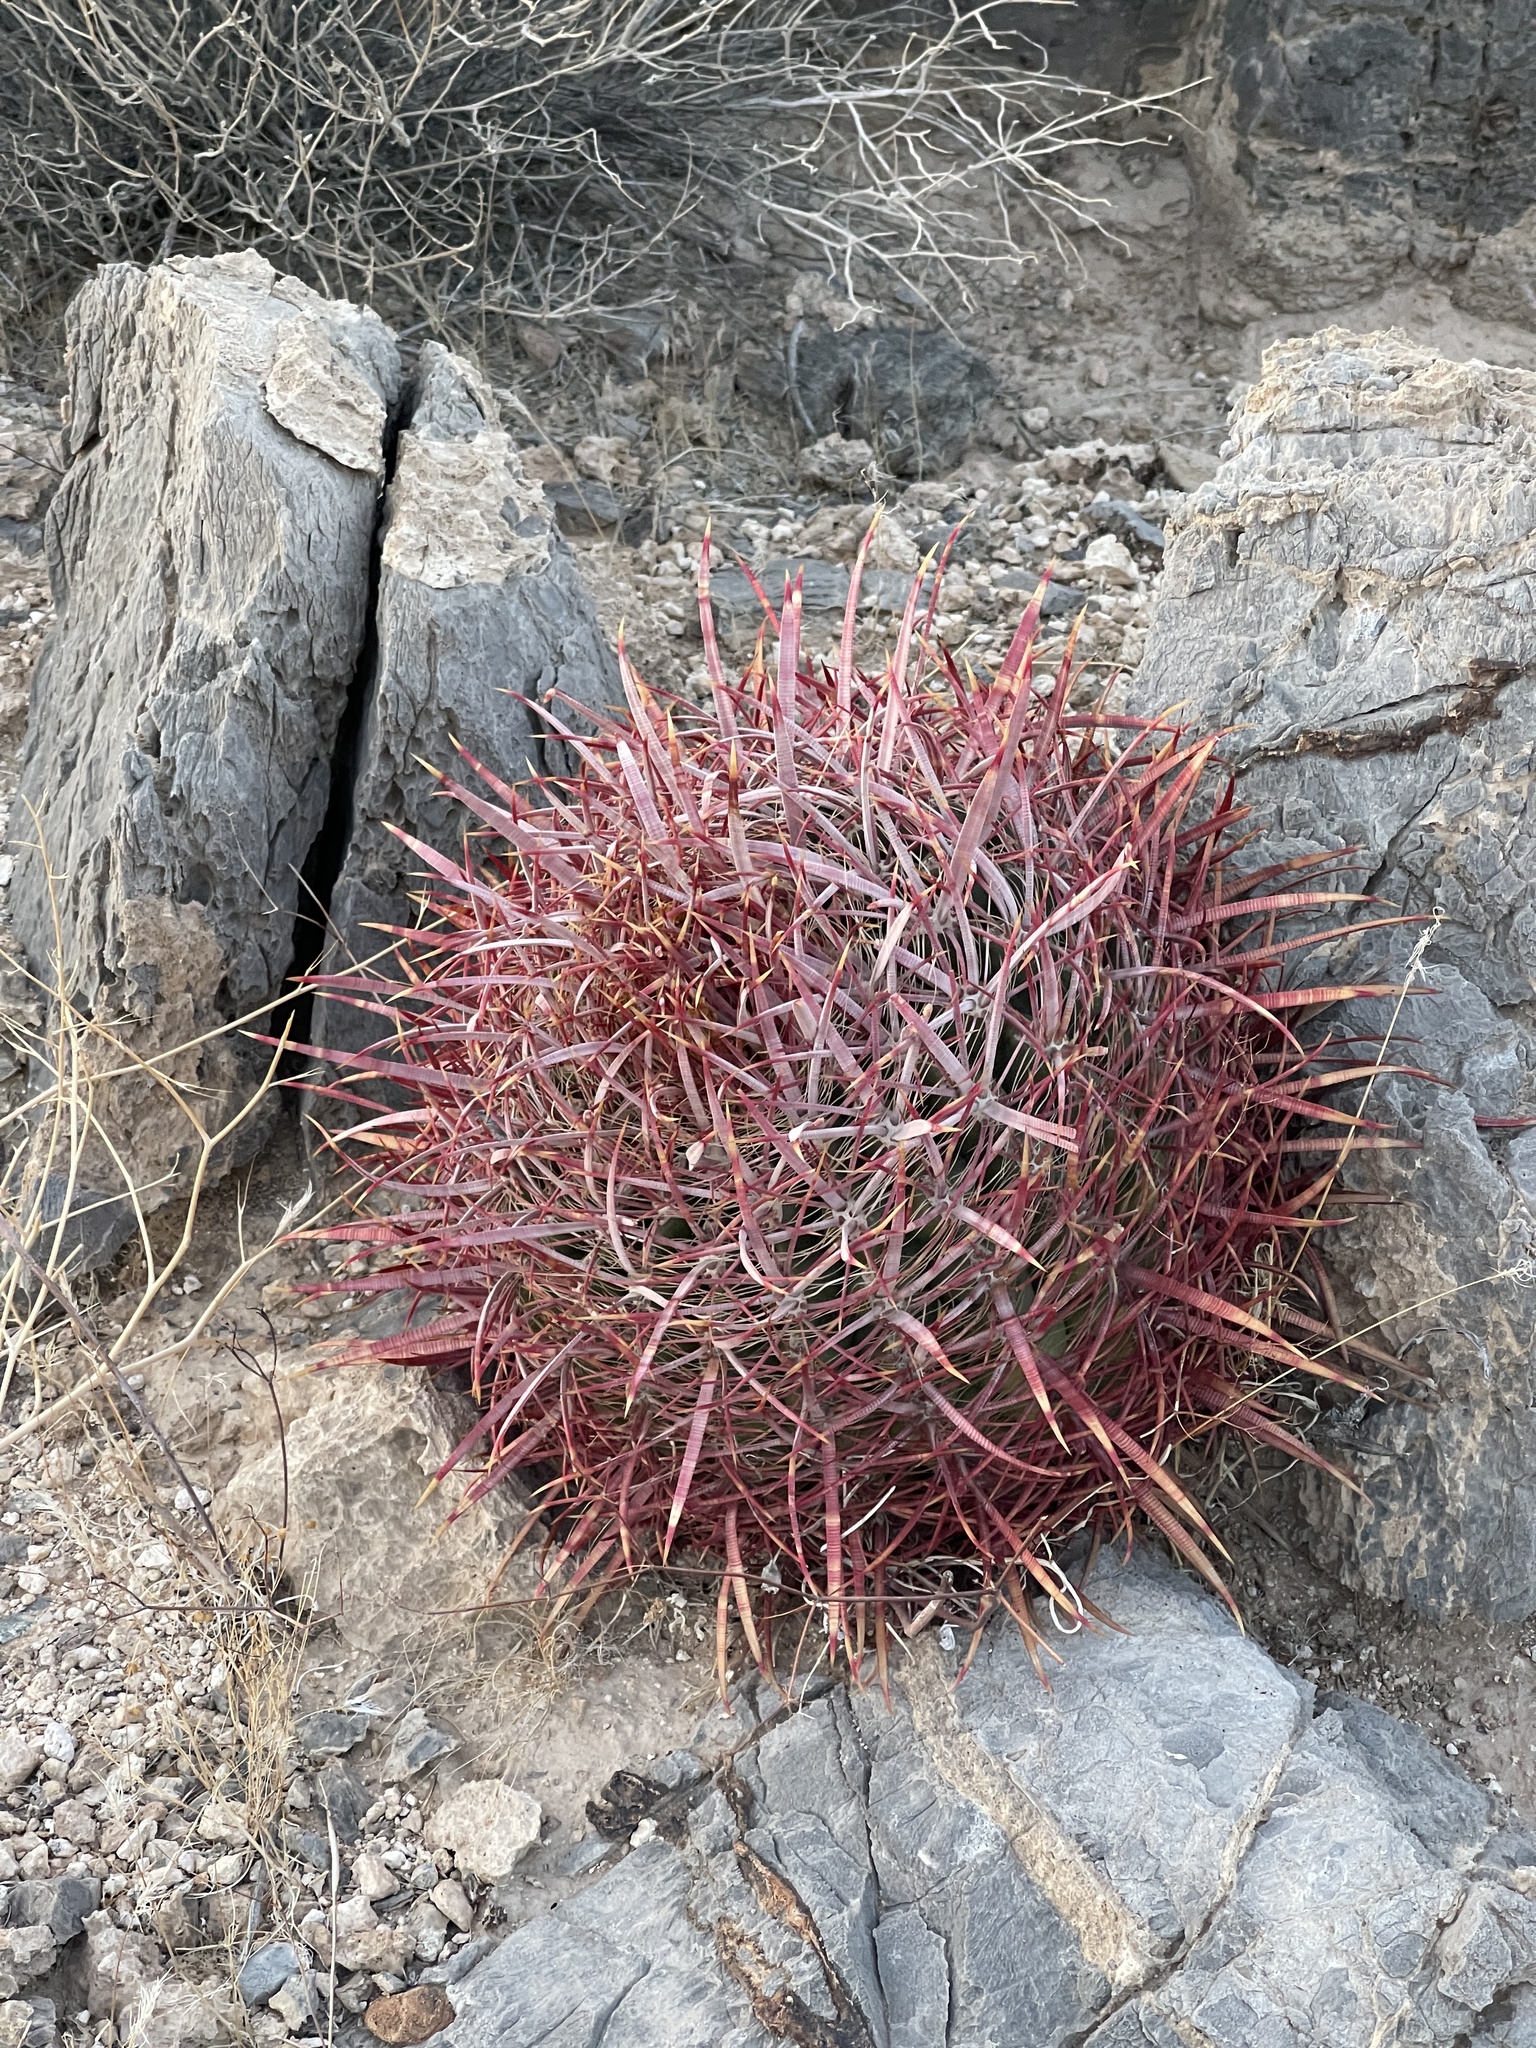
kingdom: Plantae
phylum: Tracheophyta
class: Magnoliopsida
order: Caryophyllales
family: Cactaceae
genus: Ferocactus
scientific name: Ferocactus cylindraceus
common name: California barrel cactus
